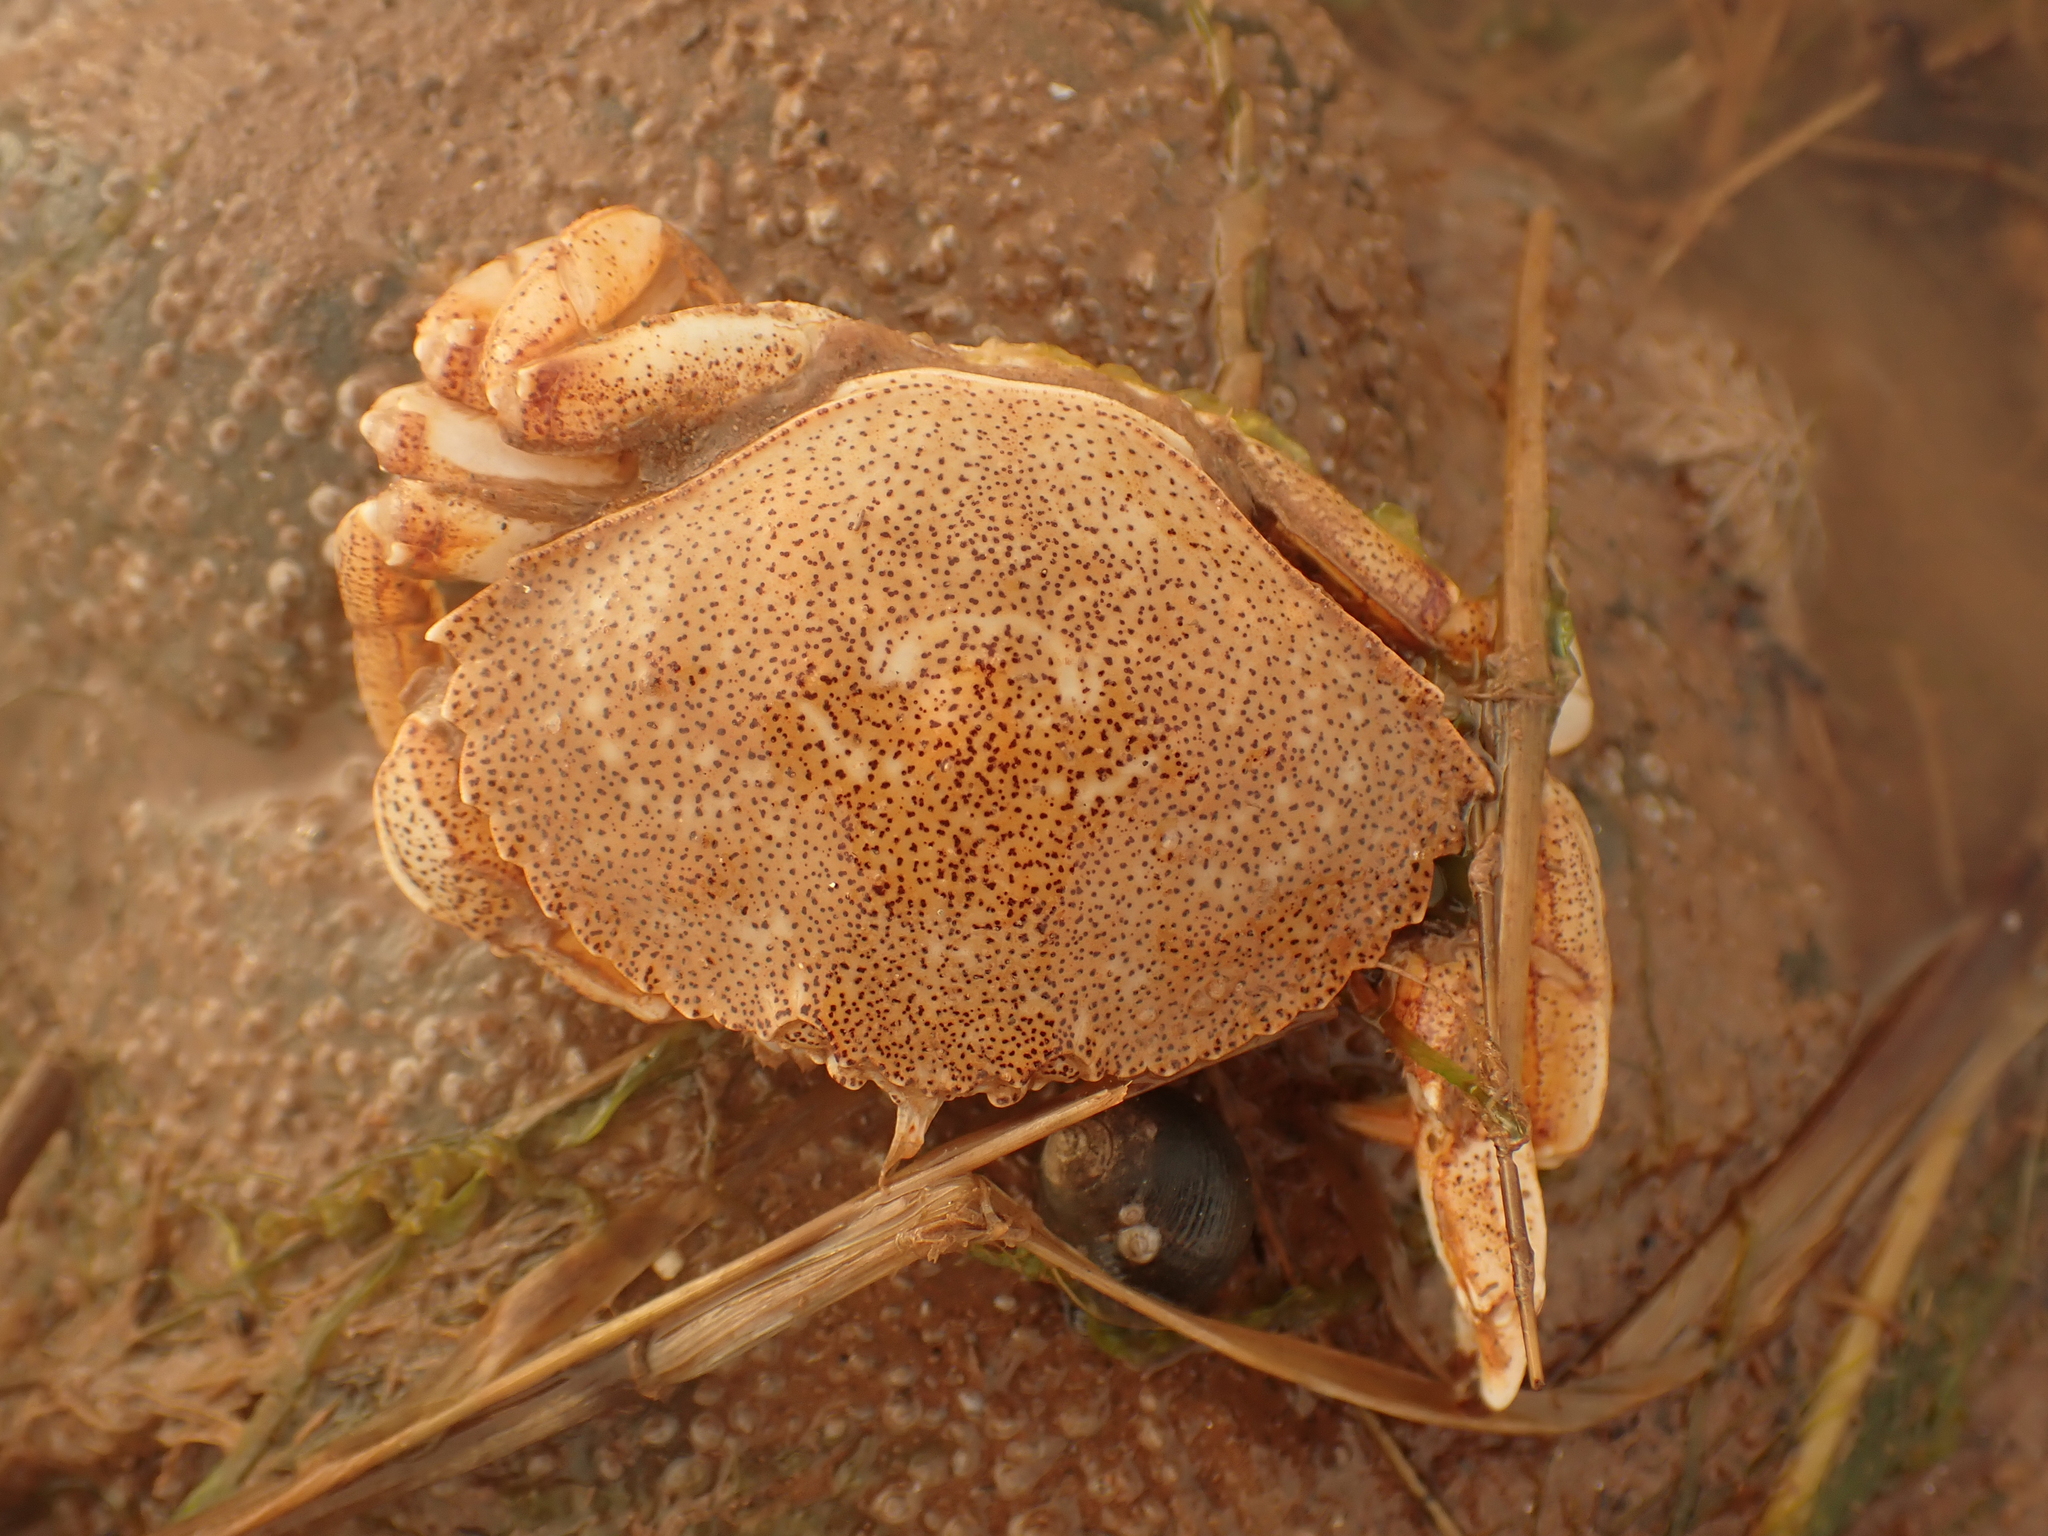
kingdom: Animalia
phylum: Arthropoda
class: Malacostraca
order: Decapoda
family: Cancridae
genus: Cancer
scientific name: Cancer irroratus
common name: Atlantic rock crab
